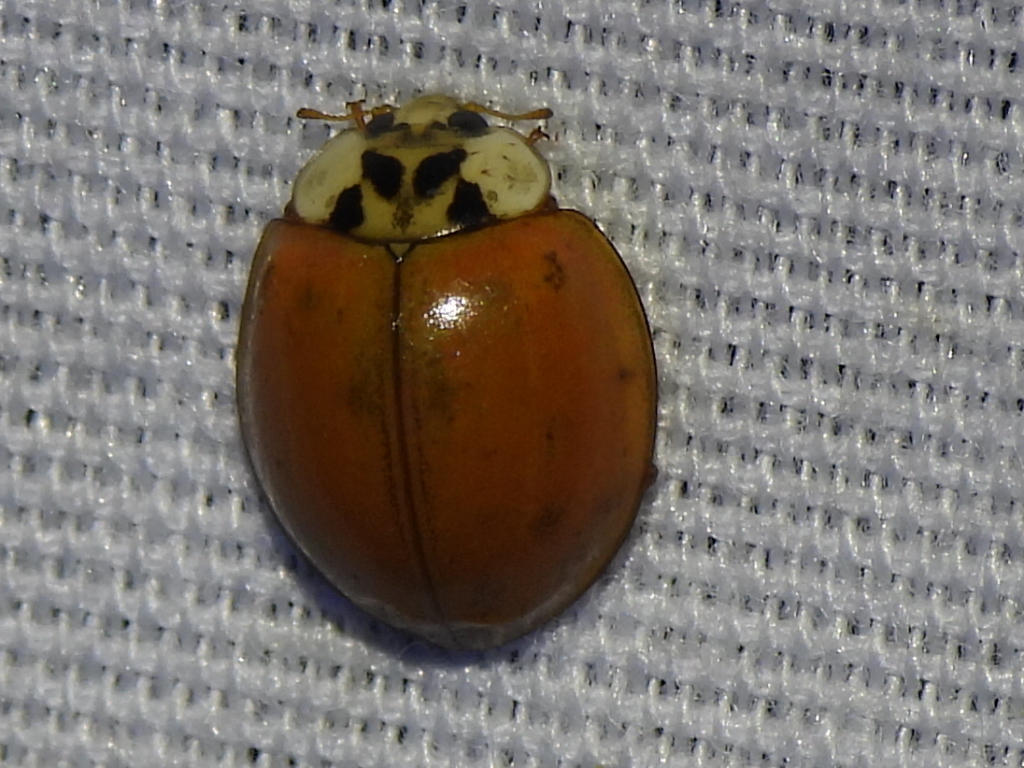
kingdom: Animalia
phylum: Arthropoda
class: Insecta
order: Coleoptera
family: Coccinellidae
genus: Harmonia
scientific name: Harmonia axyridis
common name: Harlequin ladybird
